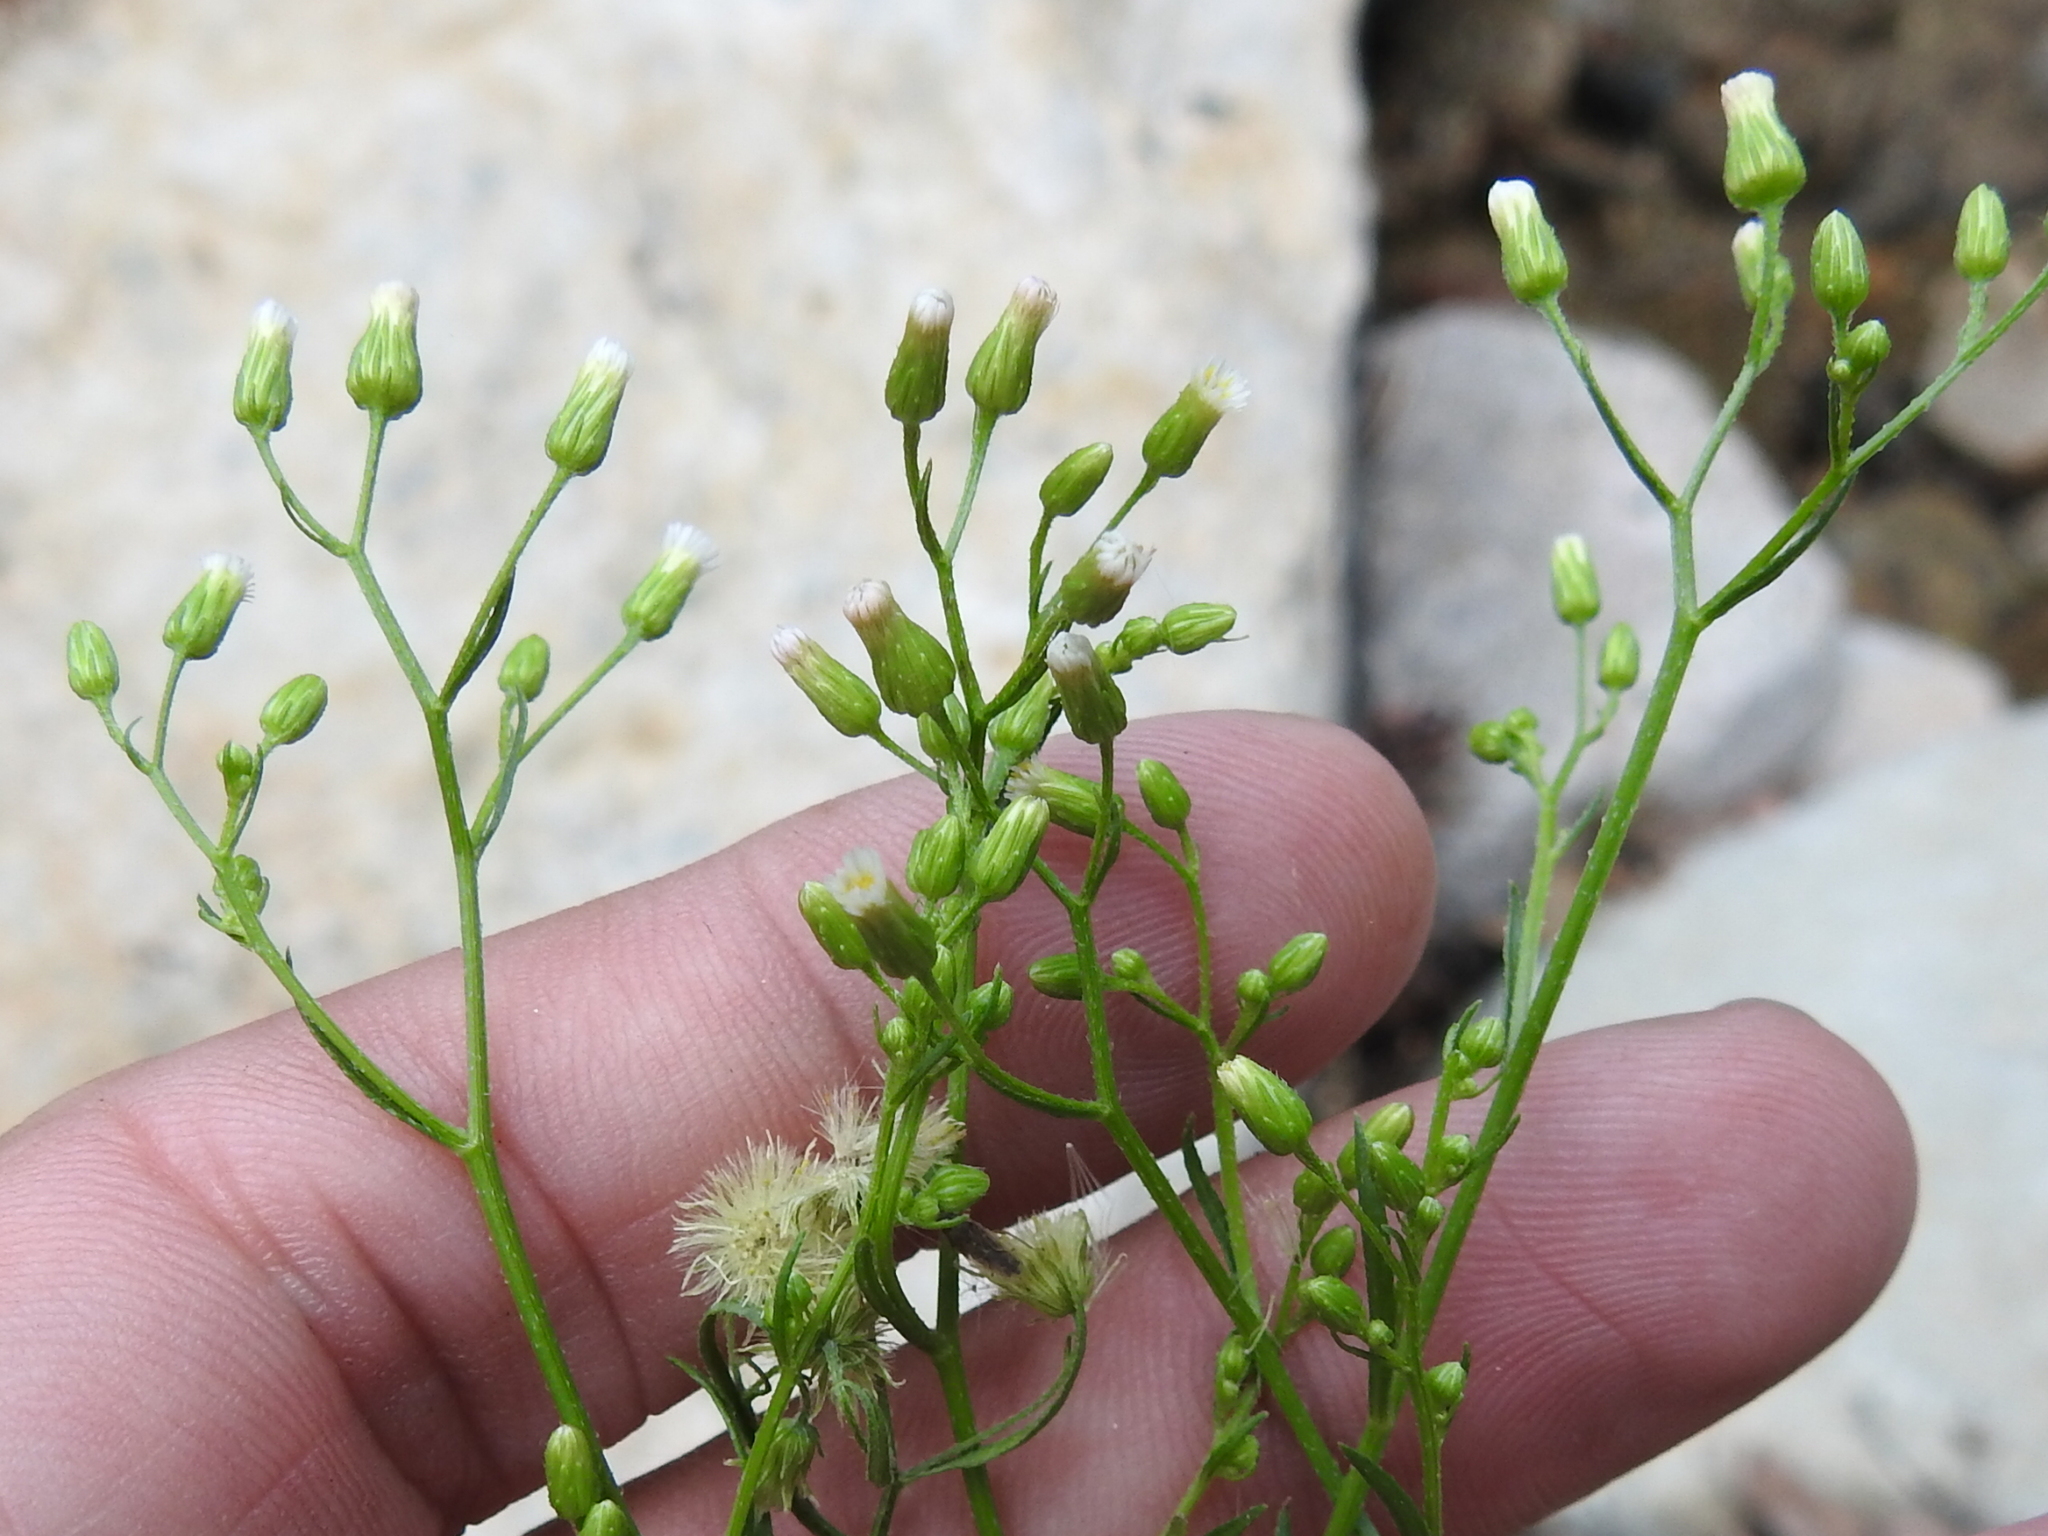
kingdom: Plantae
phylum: Tracheophyta
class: Magnoliopsida
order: Asterales
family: Asteraceae
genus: Erigeron
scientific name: Erigeron canadensis
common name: Canadian fleabane
